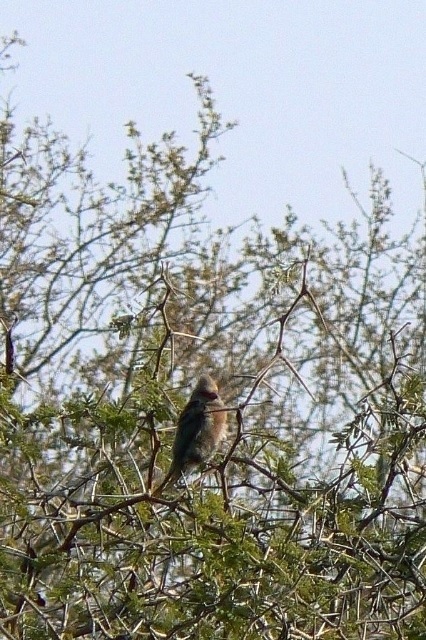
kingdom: Animalia
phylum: Chordata
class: Aves
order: Coliiformes
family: Coliidae
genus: Urocolius
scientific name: Urocolius indicus
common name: Red-faced mousebird
